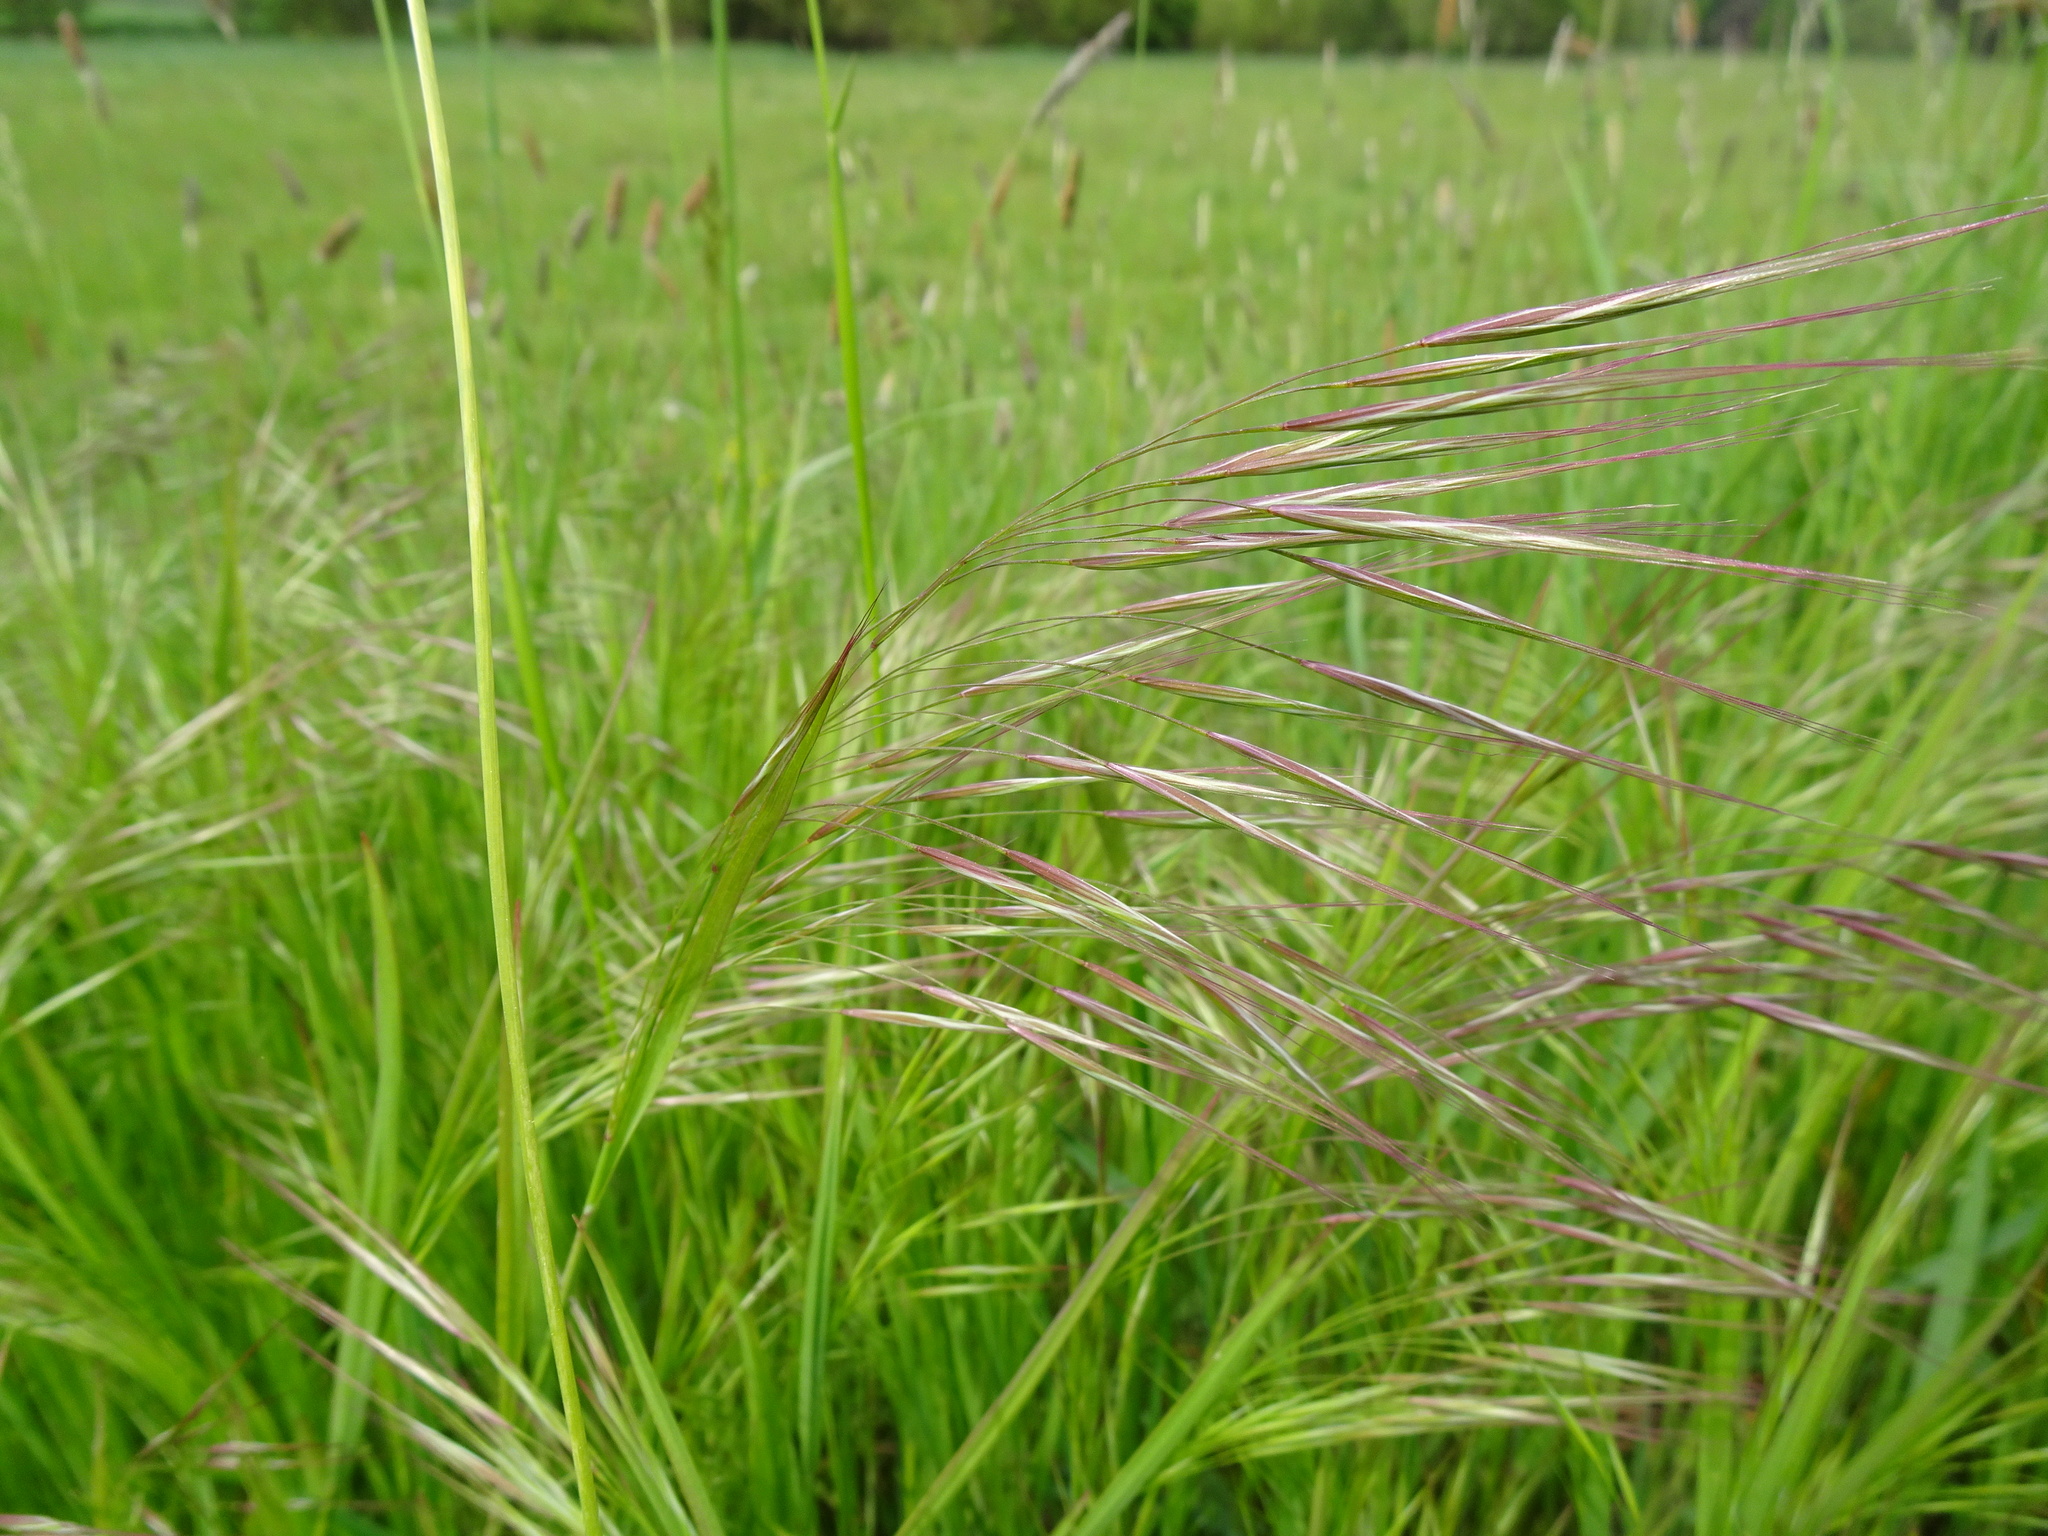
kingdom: Plantae
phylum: Tracheophyta
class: Liliopsida
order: Poales
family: Poaceae
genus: Bromus
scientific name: Bromus sterilis
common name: Poverty brome
